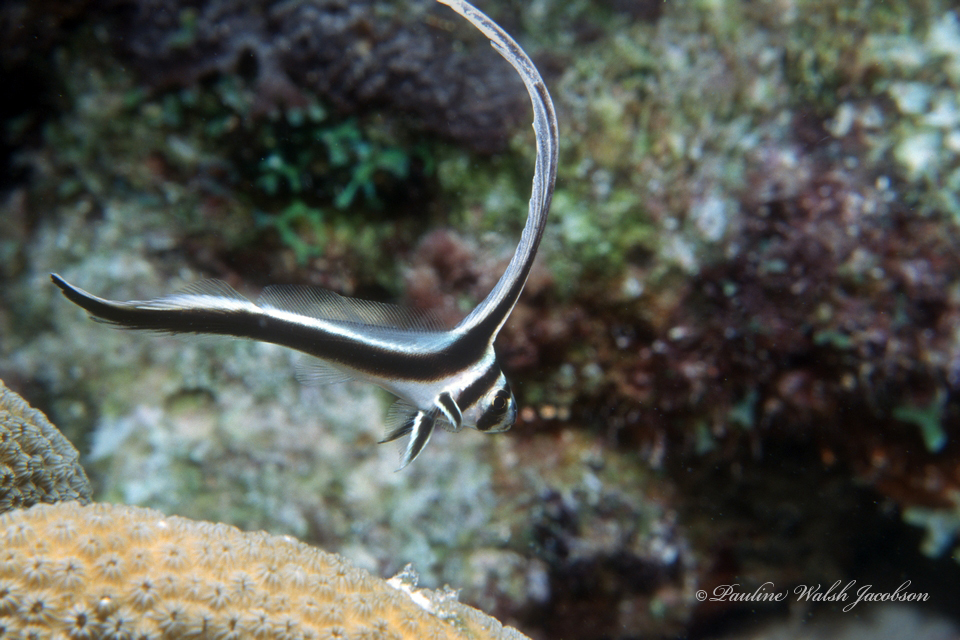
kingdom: Animalia
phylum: Chordata
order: Perciformes
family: Sciaenidae
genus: Equetus
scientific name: Equetus punctatus
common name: Spotted drum
